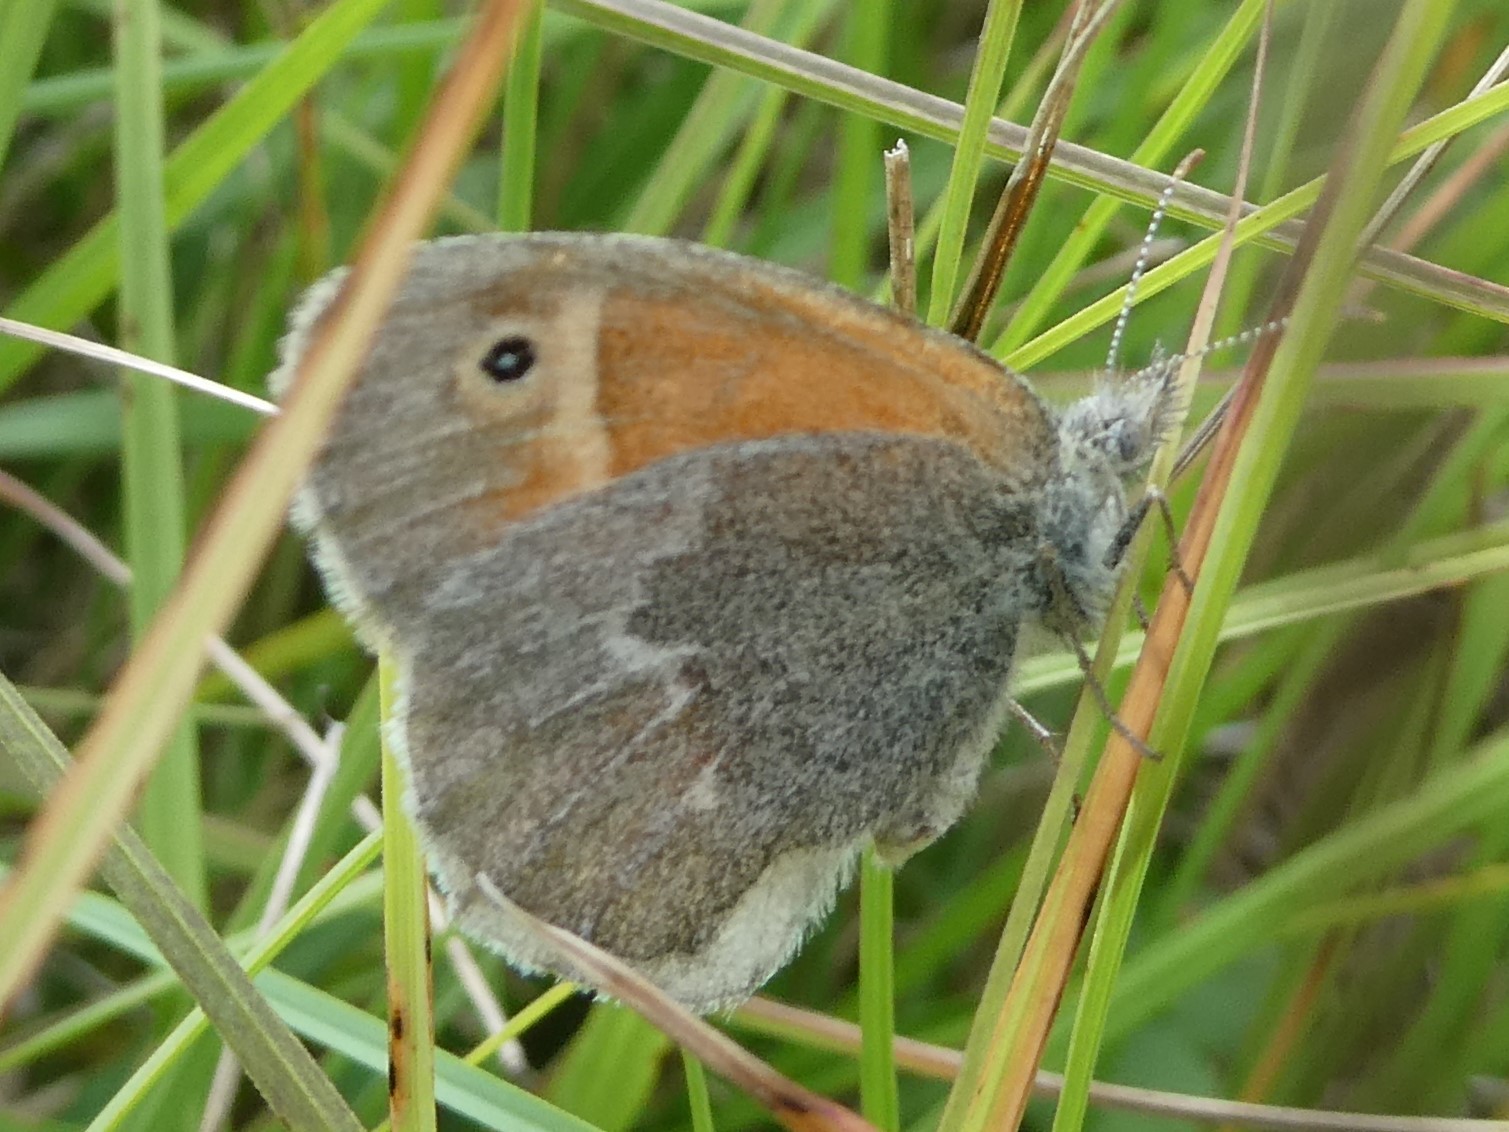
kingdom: Animalia
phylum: Arthropoda
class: Insecta
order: Lepidoptera
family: Nymphalidae
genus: Coenonympha
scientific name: Coenonympha california
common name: Common ringlet
